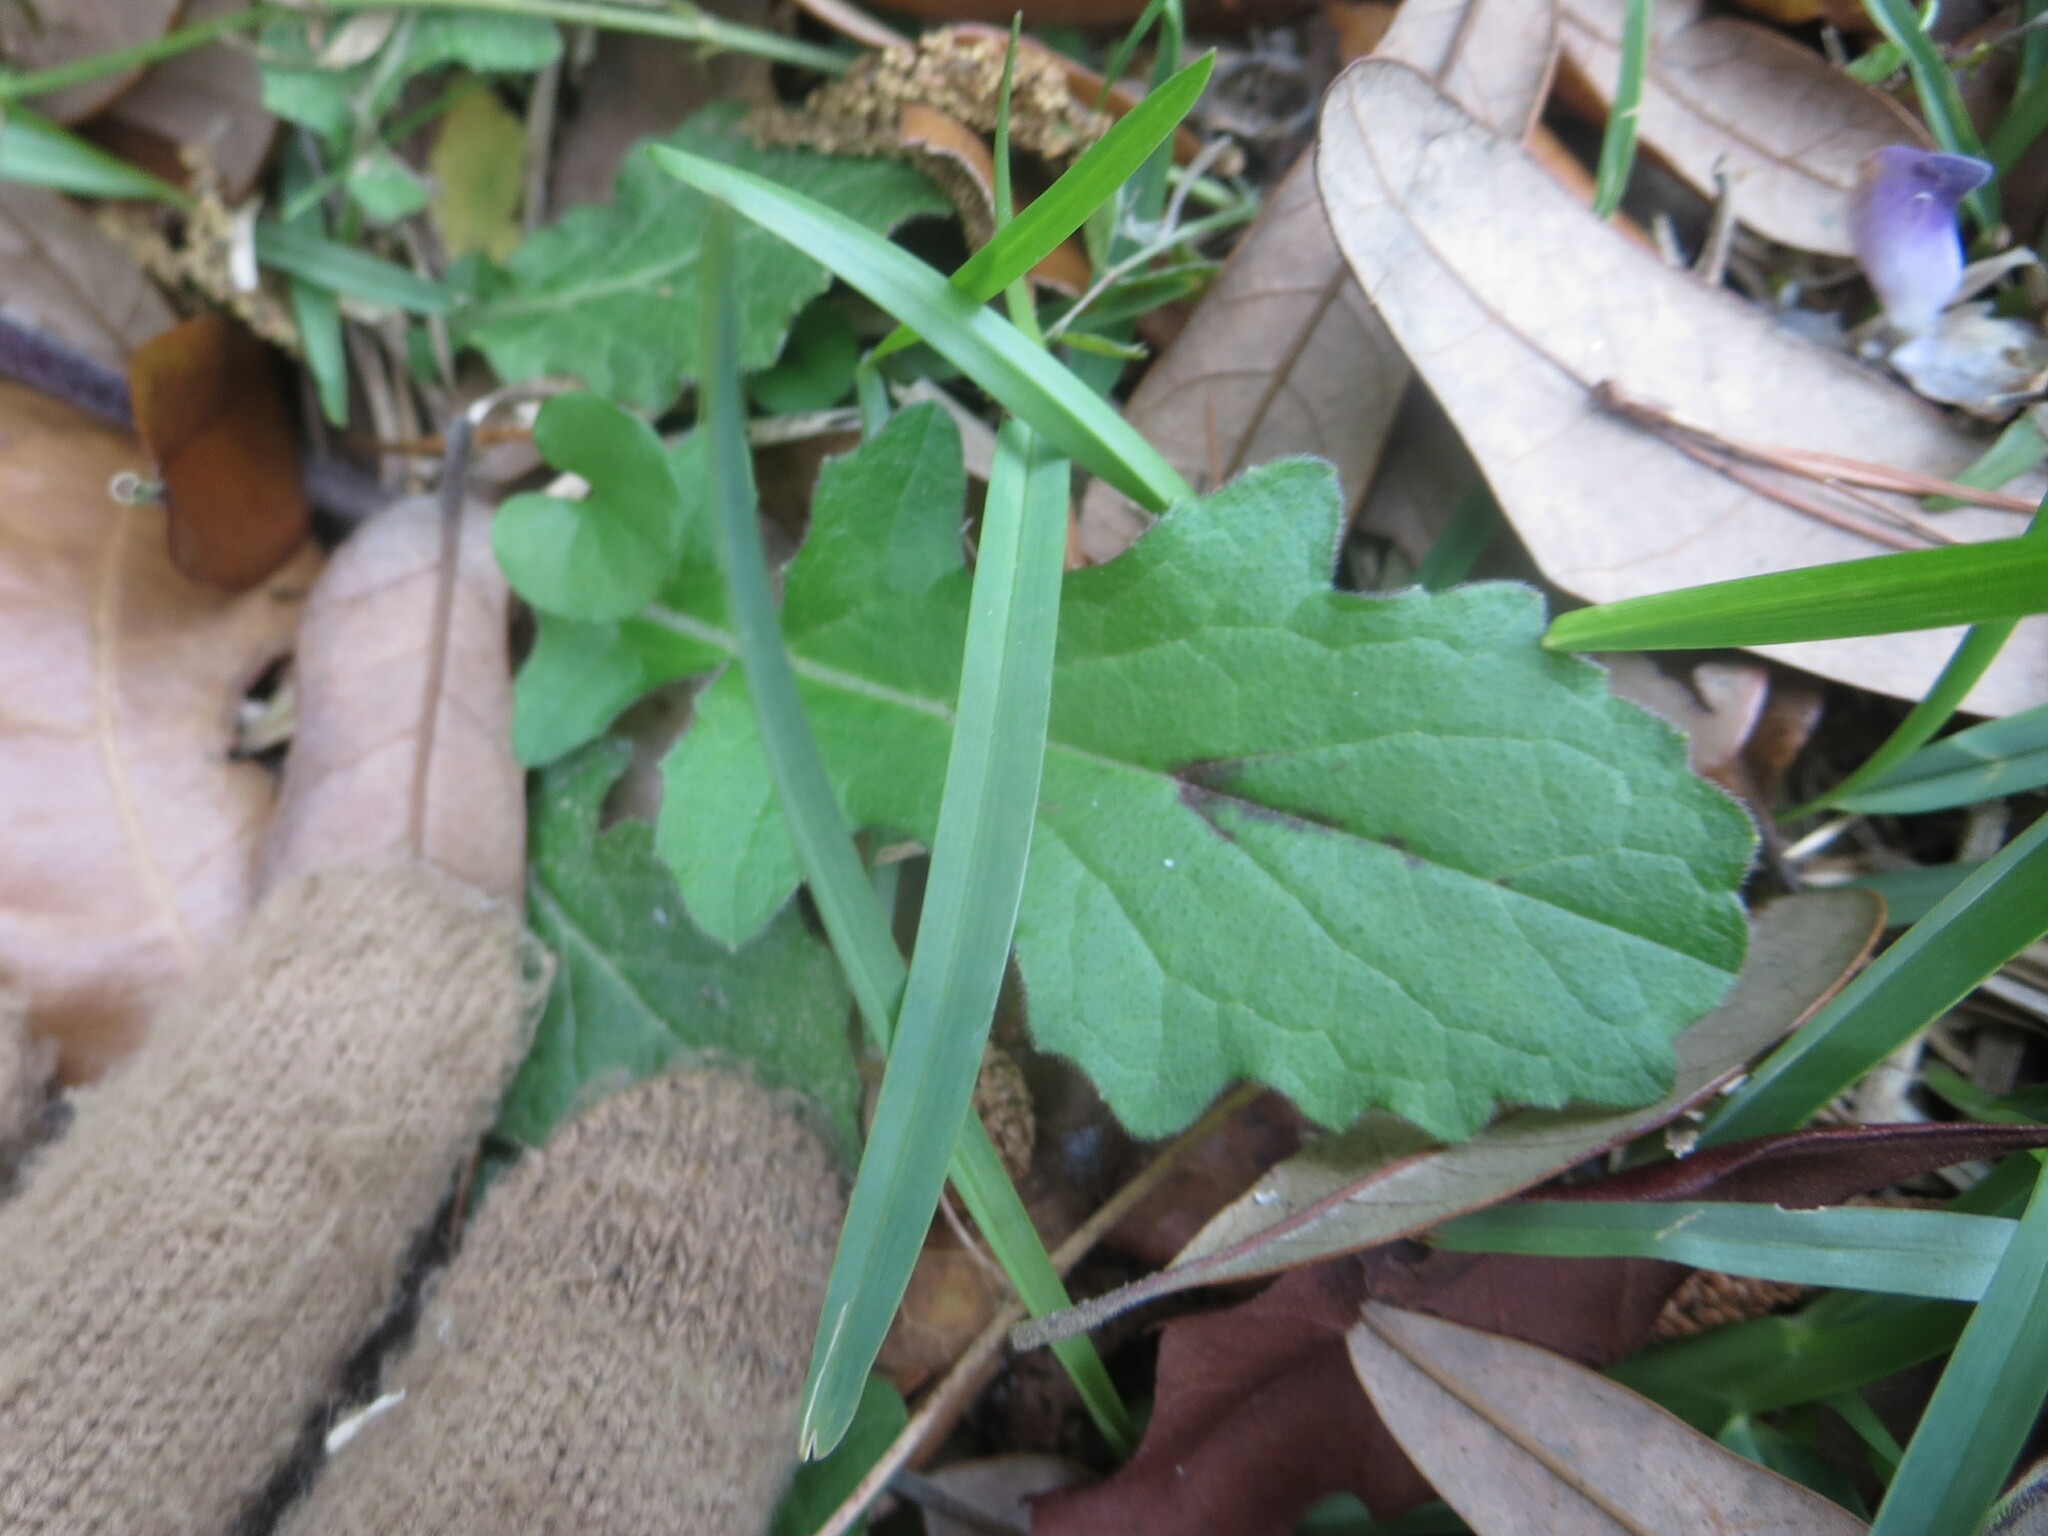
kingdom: Plantae
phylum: Tracheophyta
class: Magnoliopsida
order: Lamiales
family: Lamiaceae
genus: Salvia
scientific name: Salvia lyrata
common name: Cancerweed
